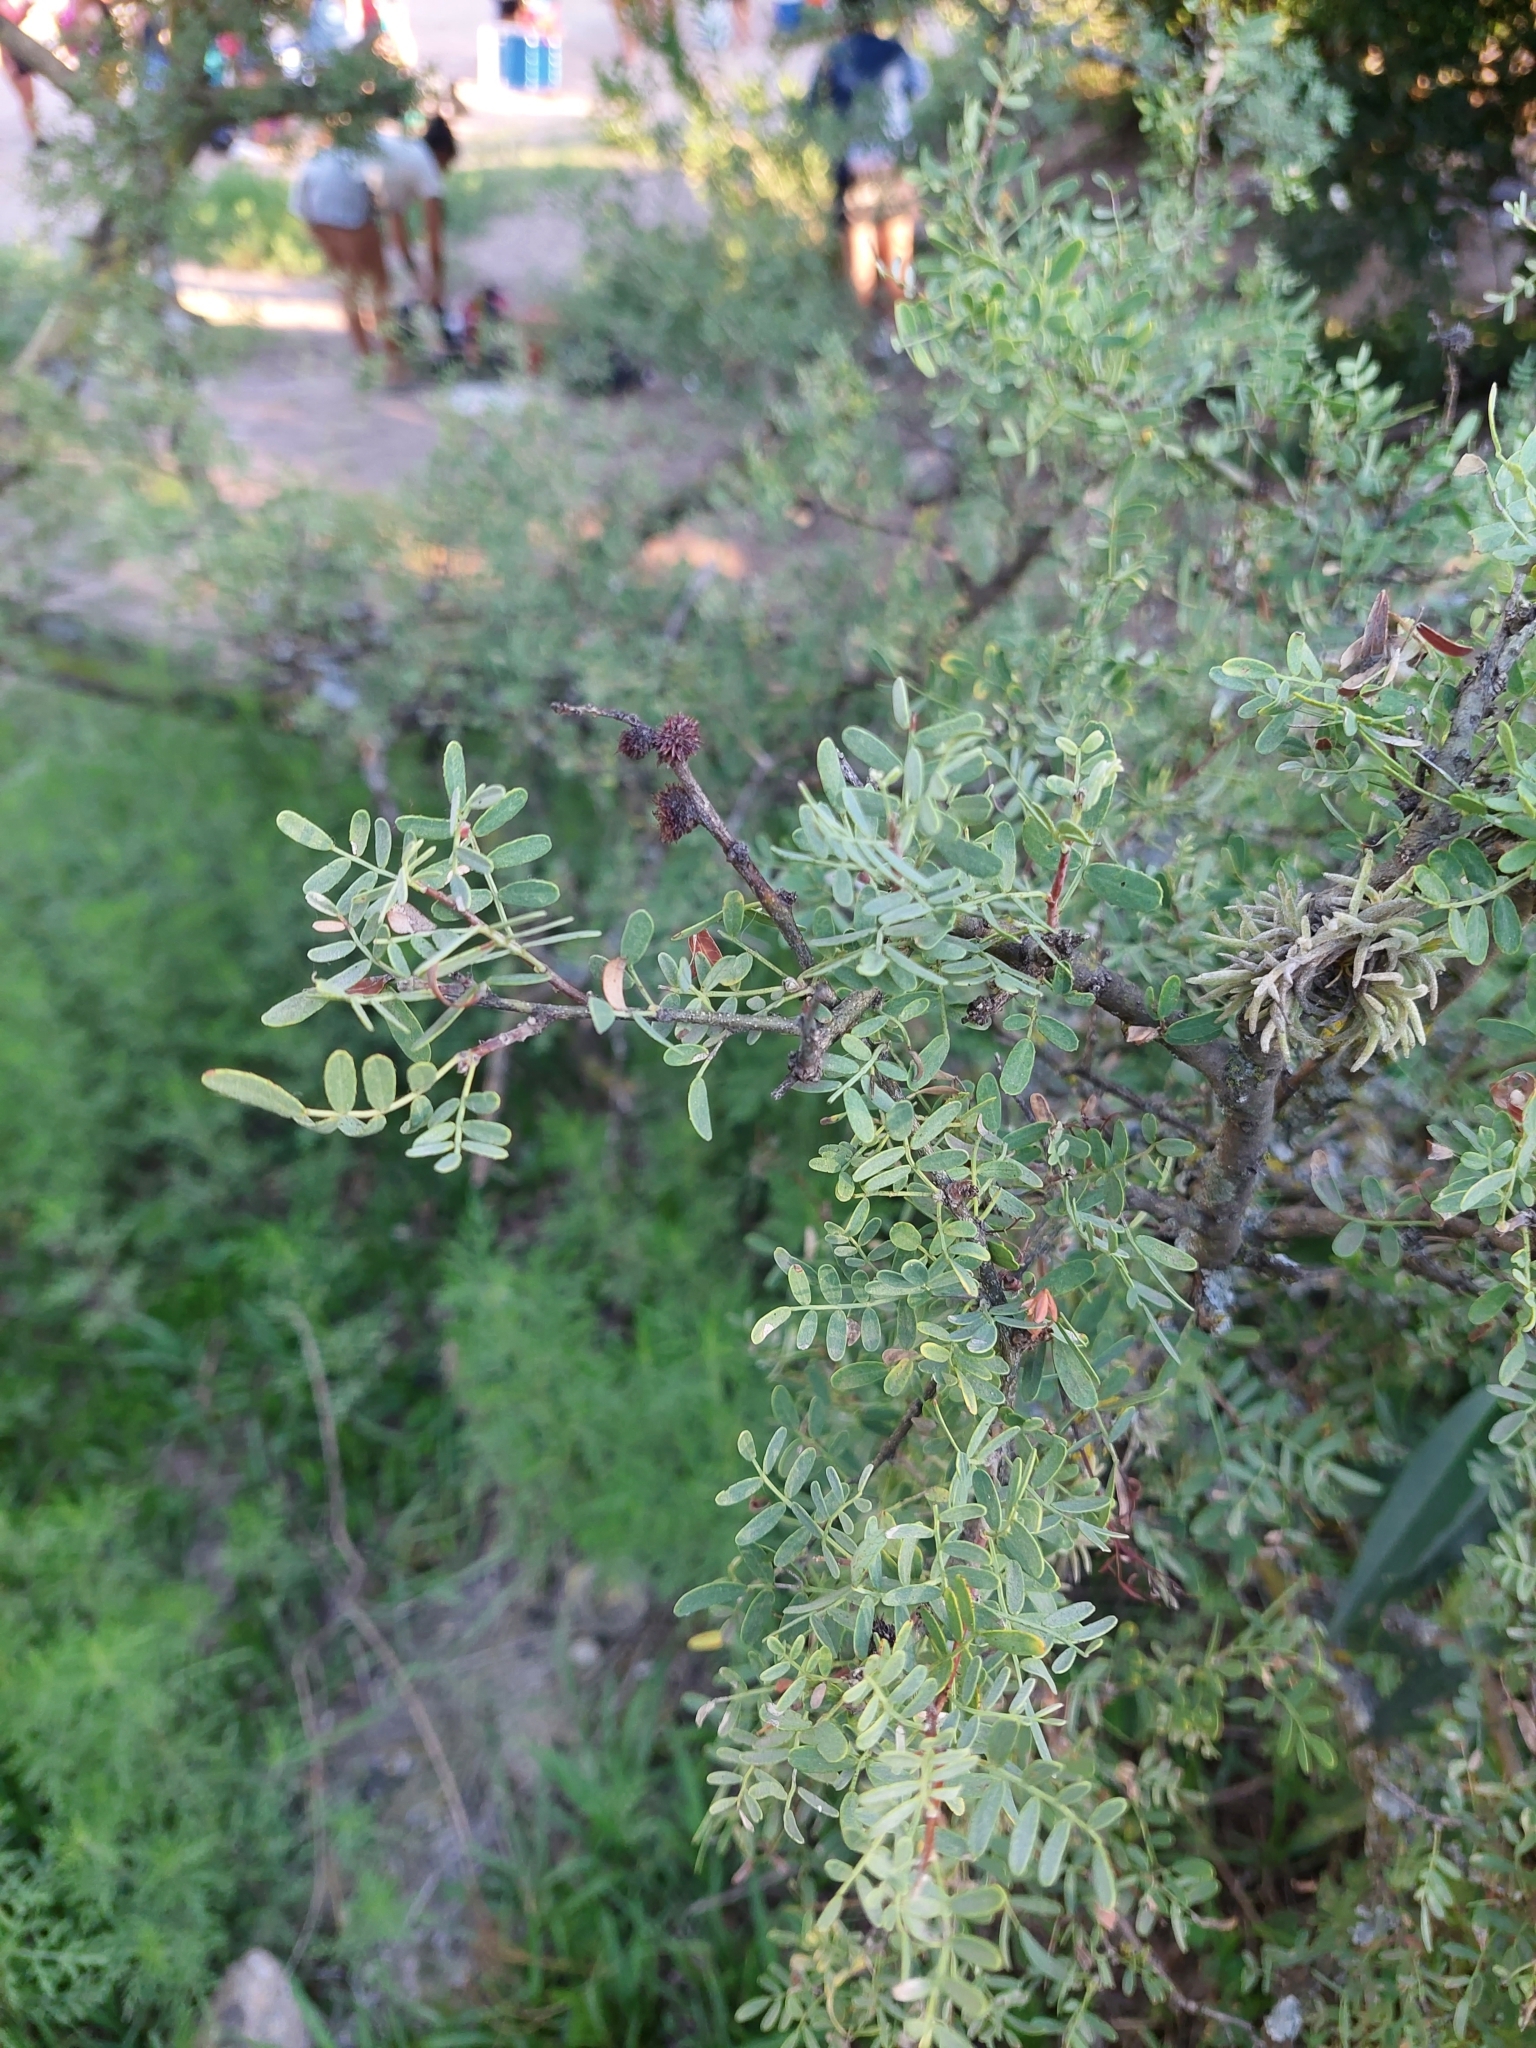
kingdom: Plantae
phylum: Tracheophyta
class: Magnoliopsida
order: Fabales
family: Fabaceae
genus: Geoffroea
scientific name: Geoffroea decorticans
